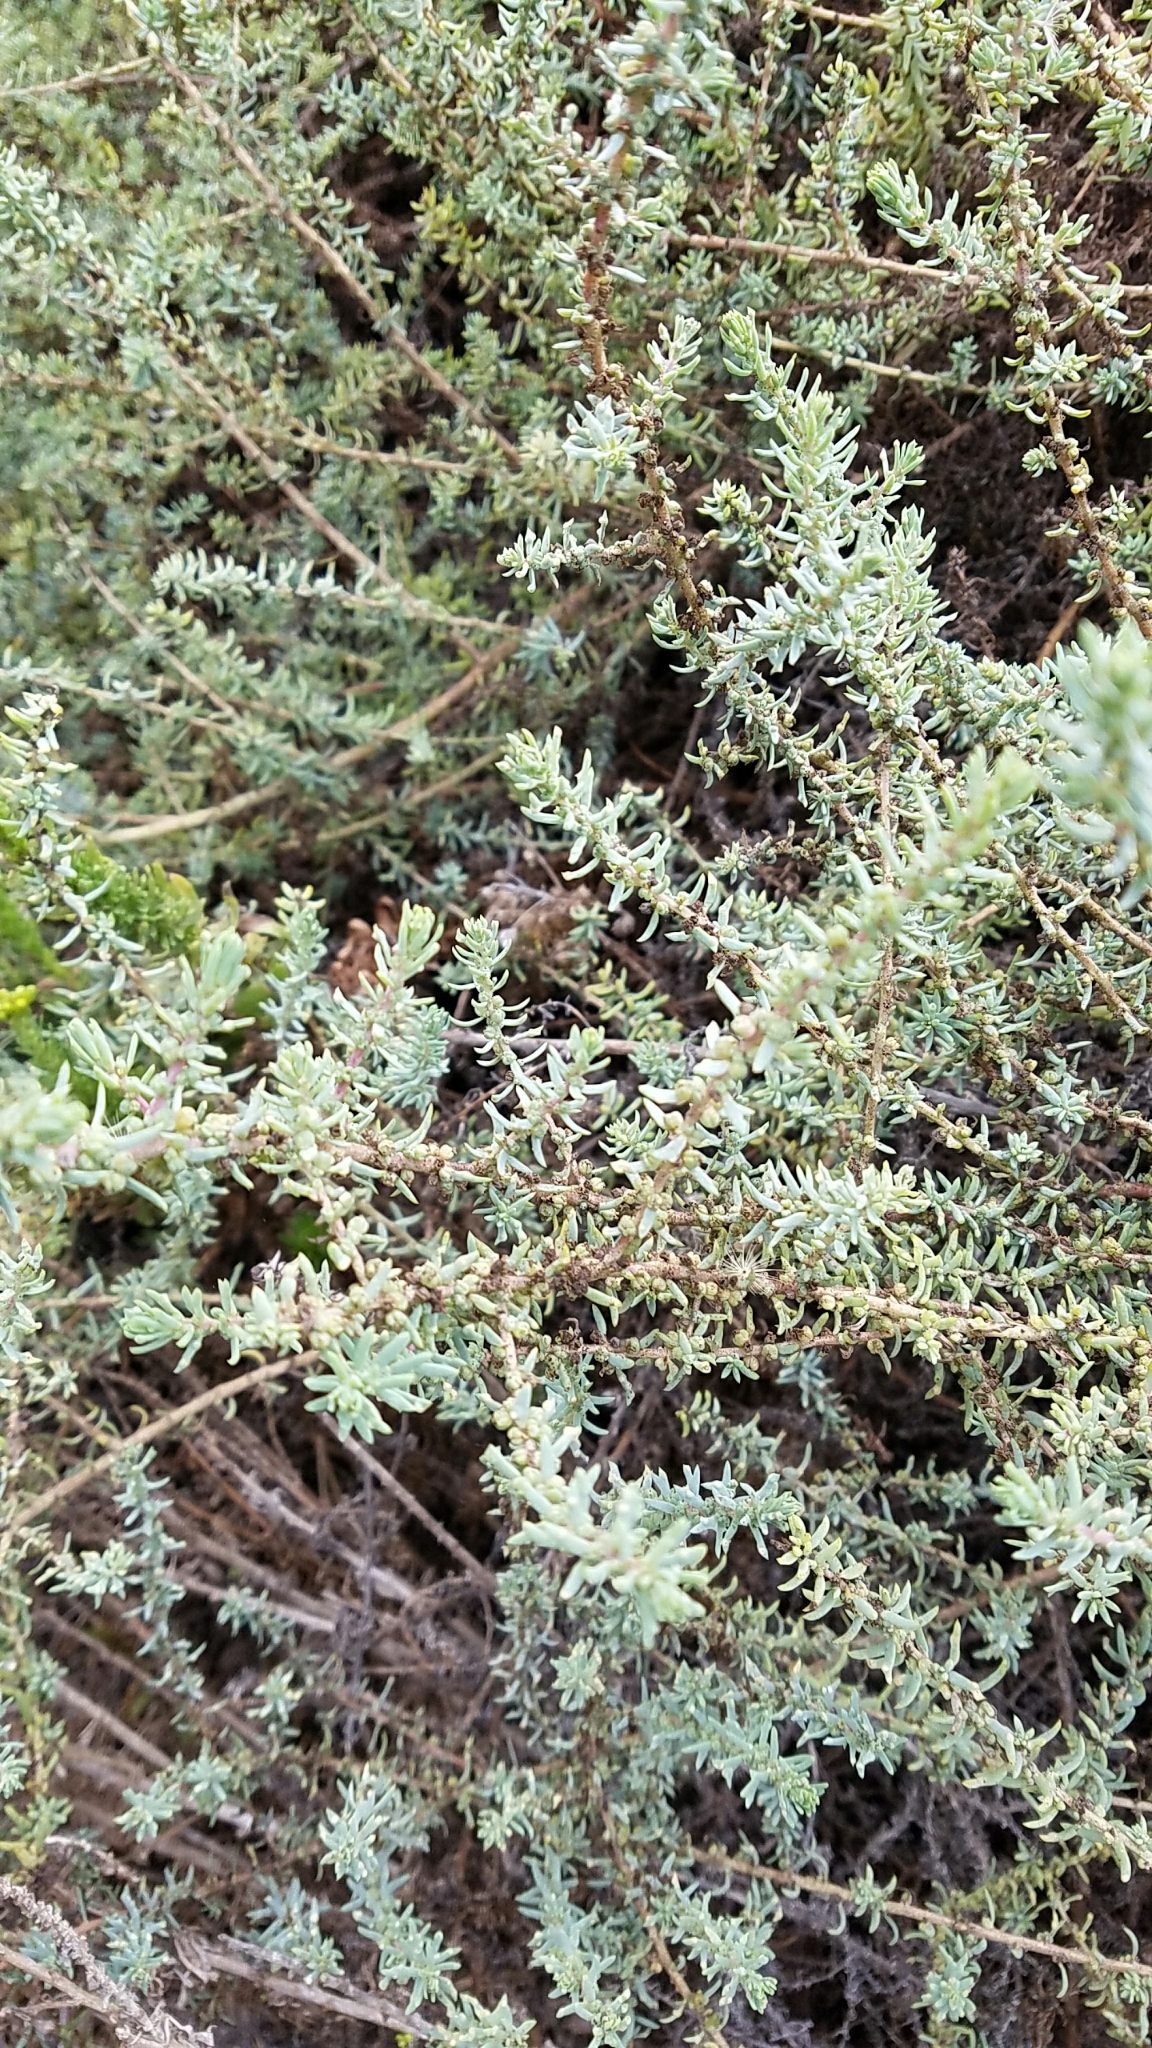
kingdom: Plantae
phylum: Tracheophyta
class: Magnoliopsida
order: Caryophyllales
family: Amaranthaceae
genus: Suaeda
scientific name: Suaeda taxifolia
